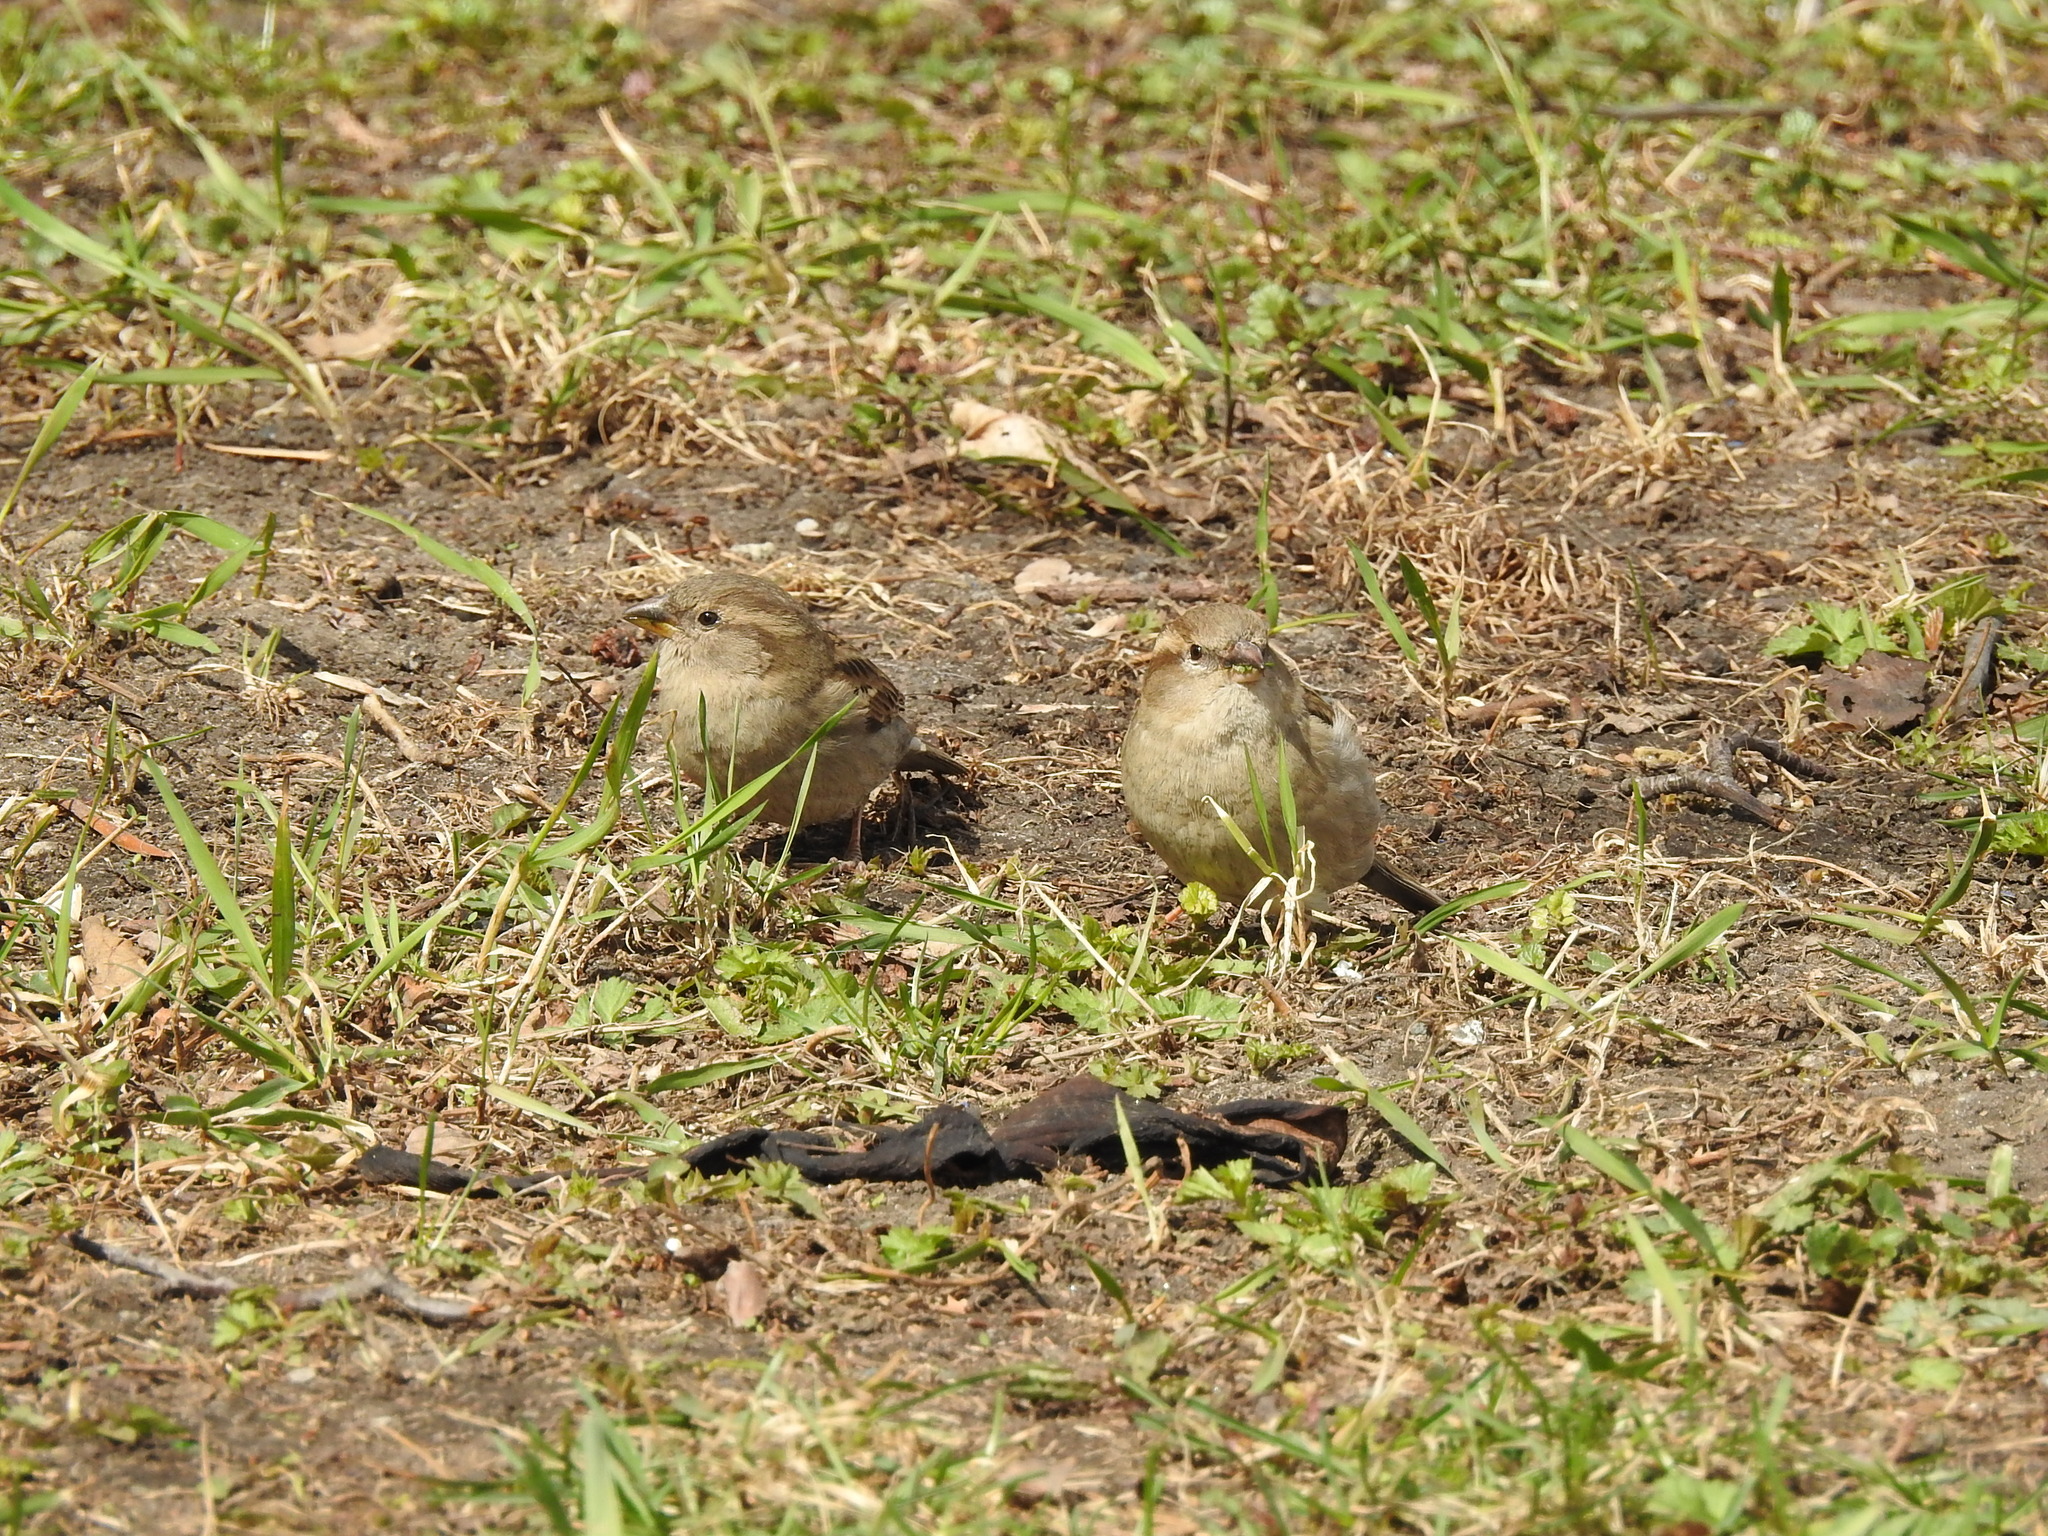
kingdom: Animalia
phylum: Chordata
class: Aves
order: Passeriformes
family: Passeridae
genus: Passer
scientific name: Passer domesticus
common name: House sparrow
